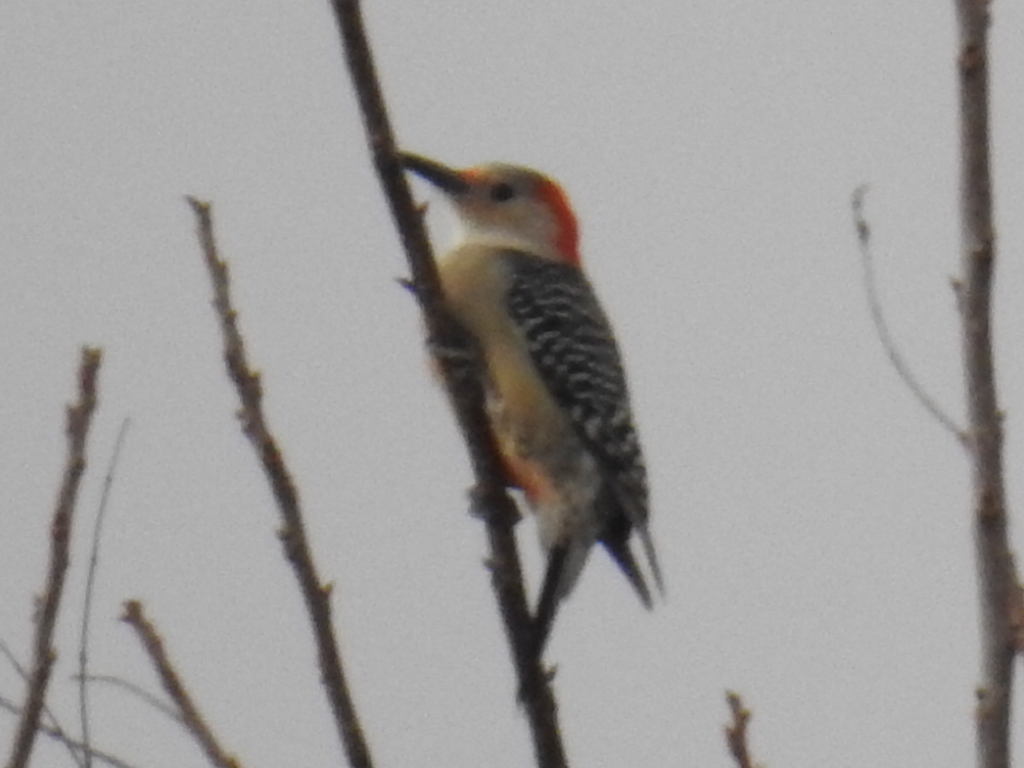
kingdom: Animalia
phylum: Chordata
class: Aves
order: Piciformes
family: Picidae
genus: Melanerpes
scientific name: Melanerpes carolinus
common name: Red-bellied woodpecker
